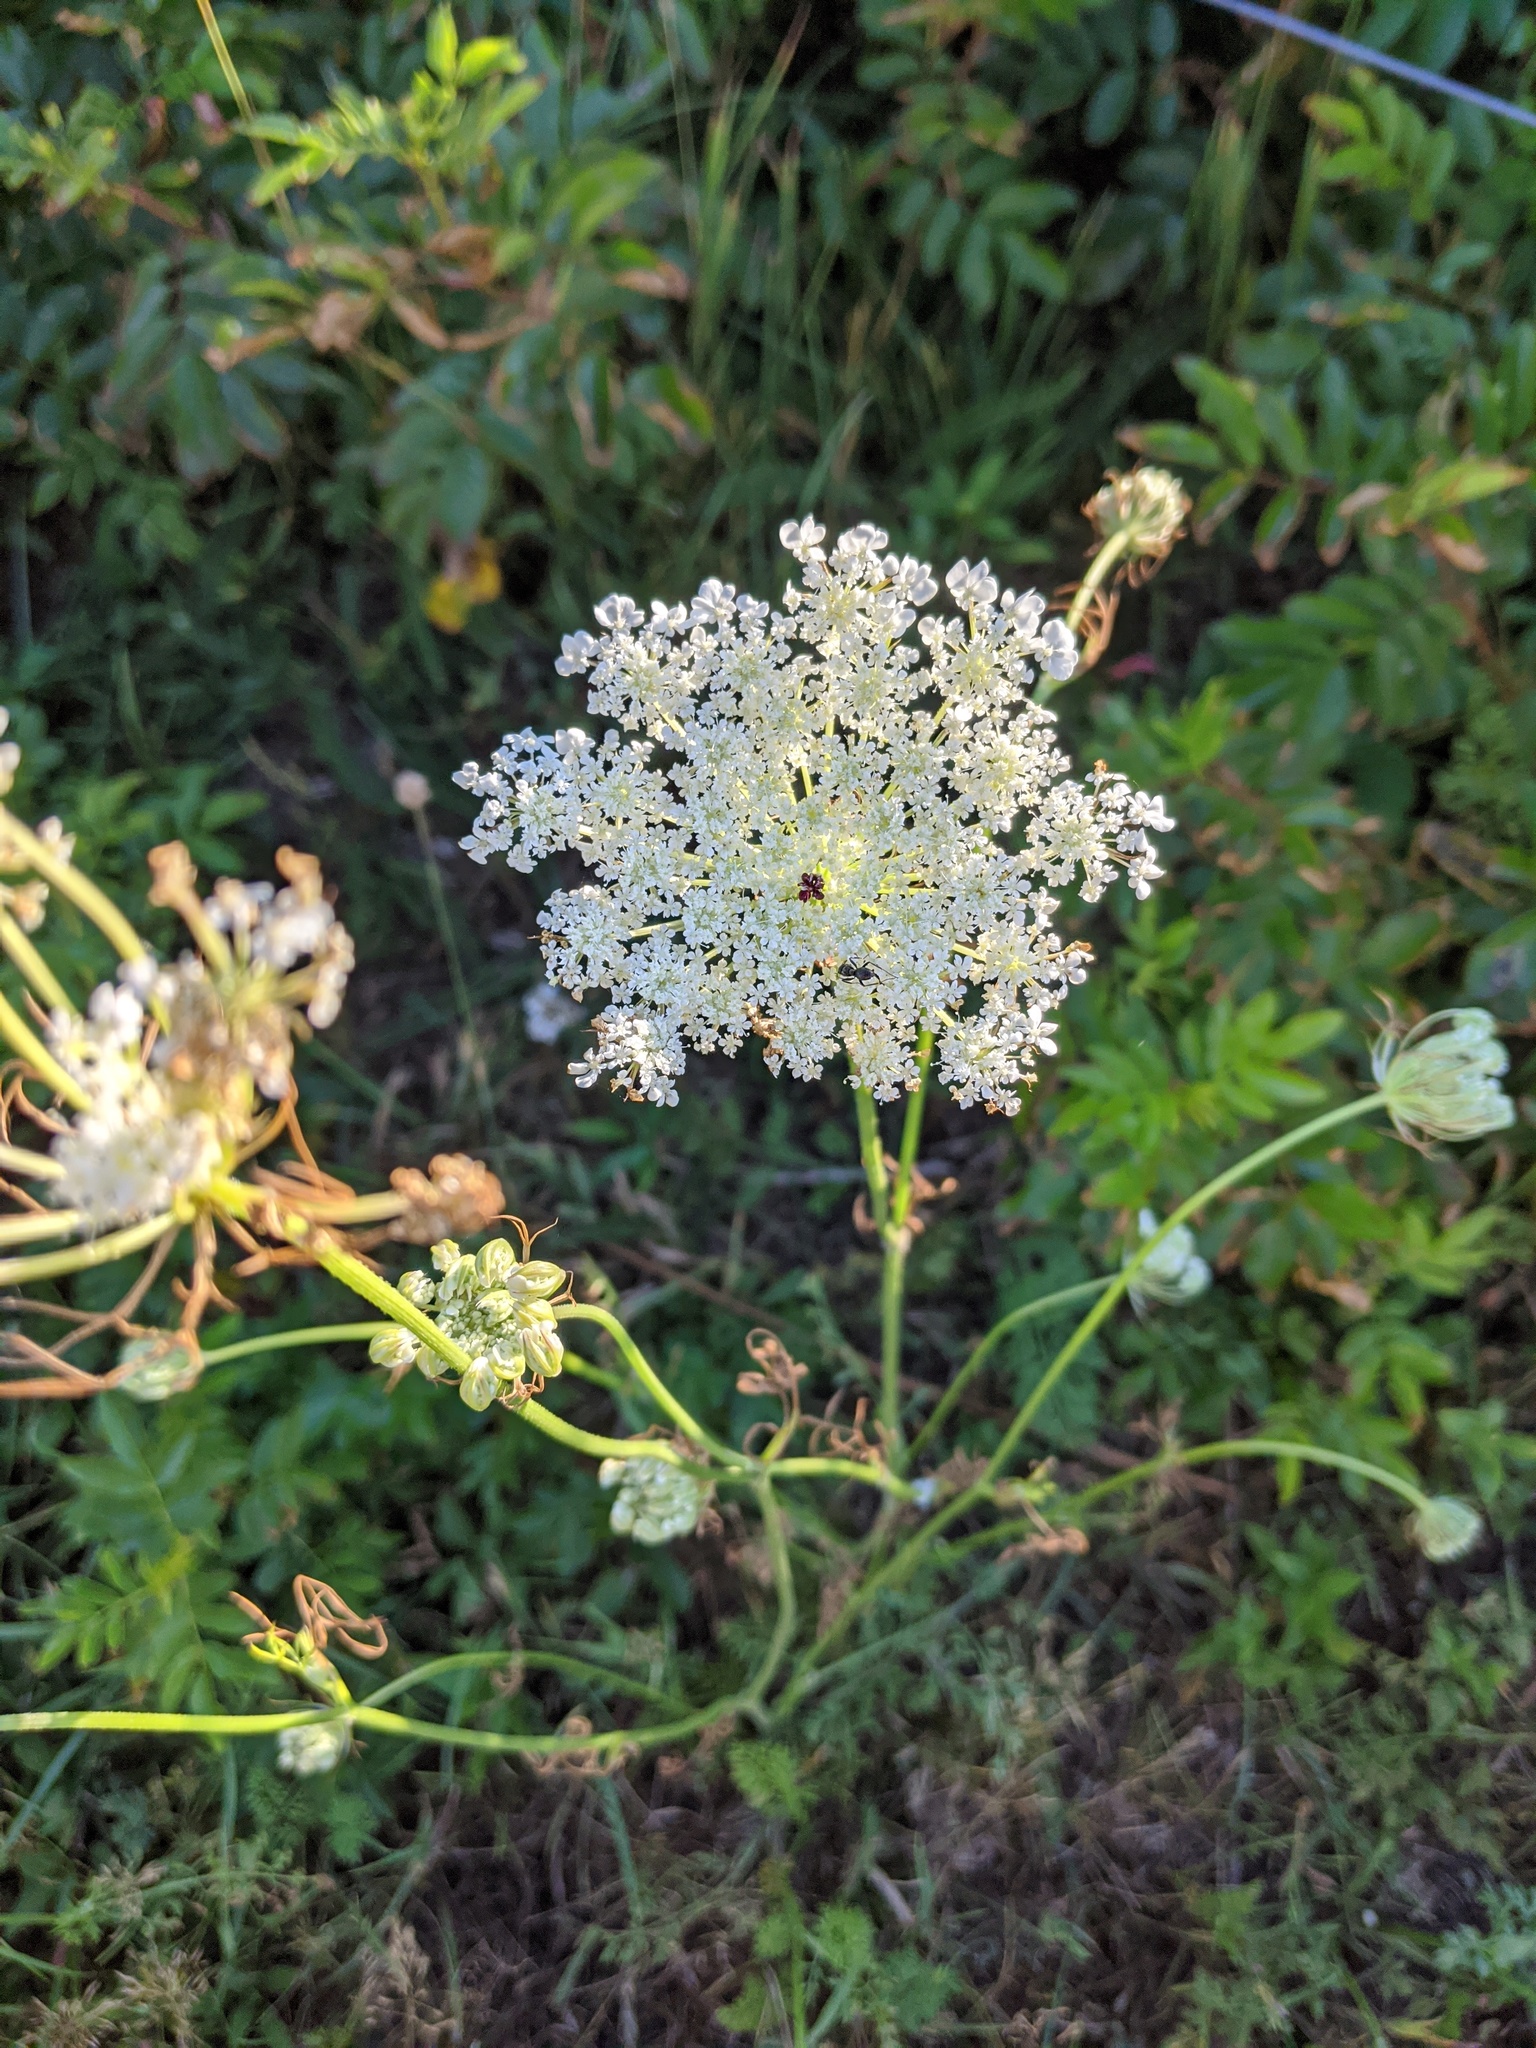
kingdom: Plantae
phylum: Tracheophyta
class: Magnoliopsida
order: Apiales
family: Apiaceae
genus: Daucus
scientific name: Daucus carota
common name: Wild carrot
